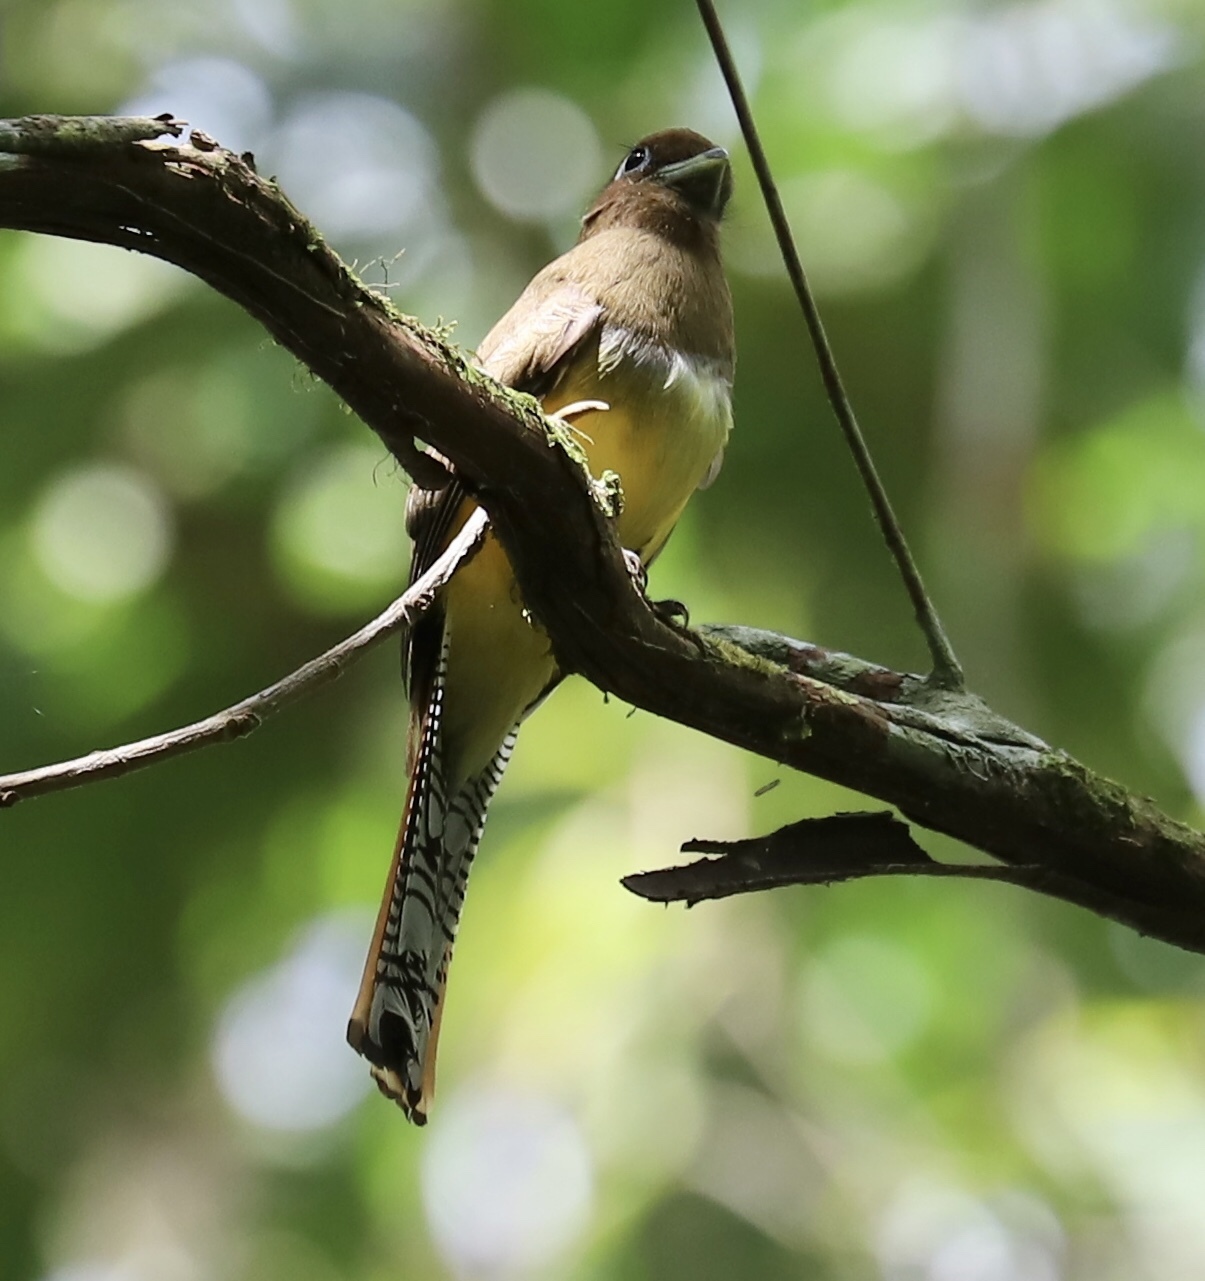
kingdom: Animalia
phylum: Chordata
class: Aves
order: Trogoniformes
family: Trogonidae
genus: Trogon
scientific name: Trogon rufus
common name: Black-throated trogon
